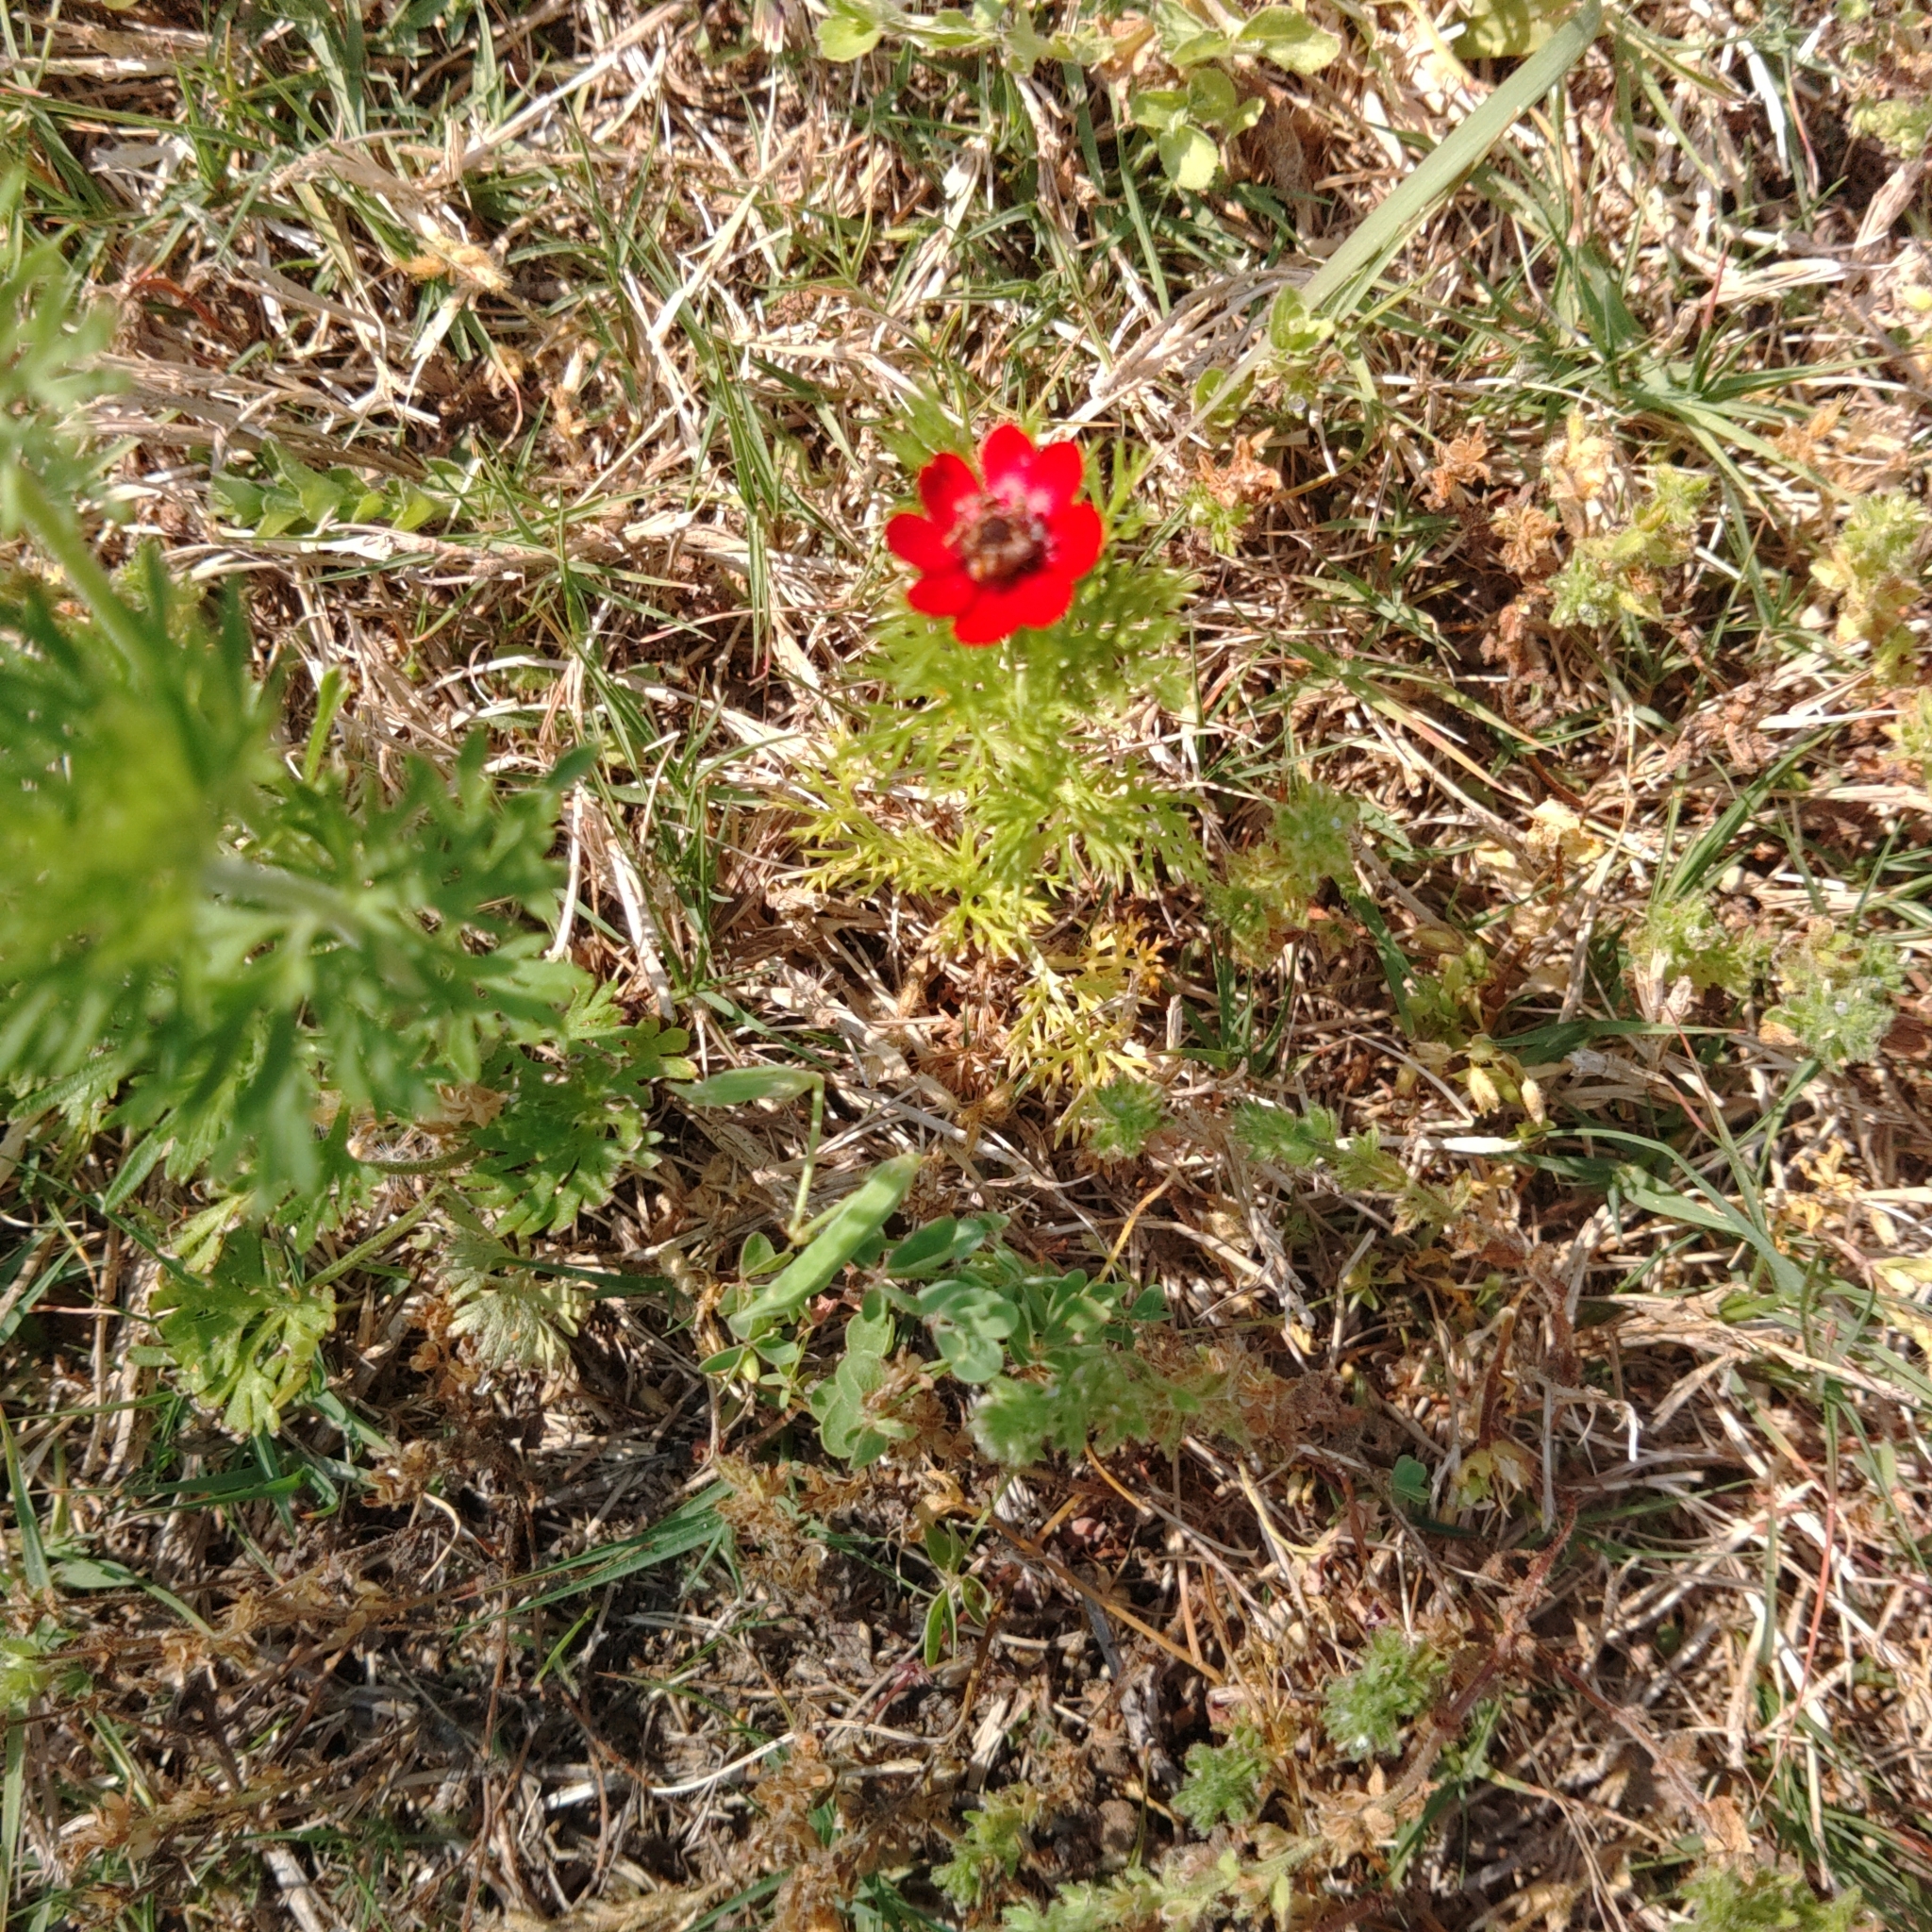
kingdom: Plantae
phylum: Tracheophyta
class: Magnoliopsida
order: Ranunculales
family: Ranunculaceae
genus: Anemone
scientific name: Anemone coronaria
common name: Poppy anemone
